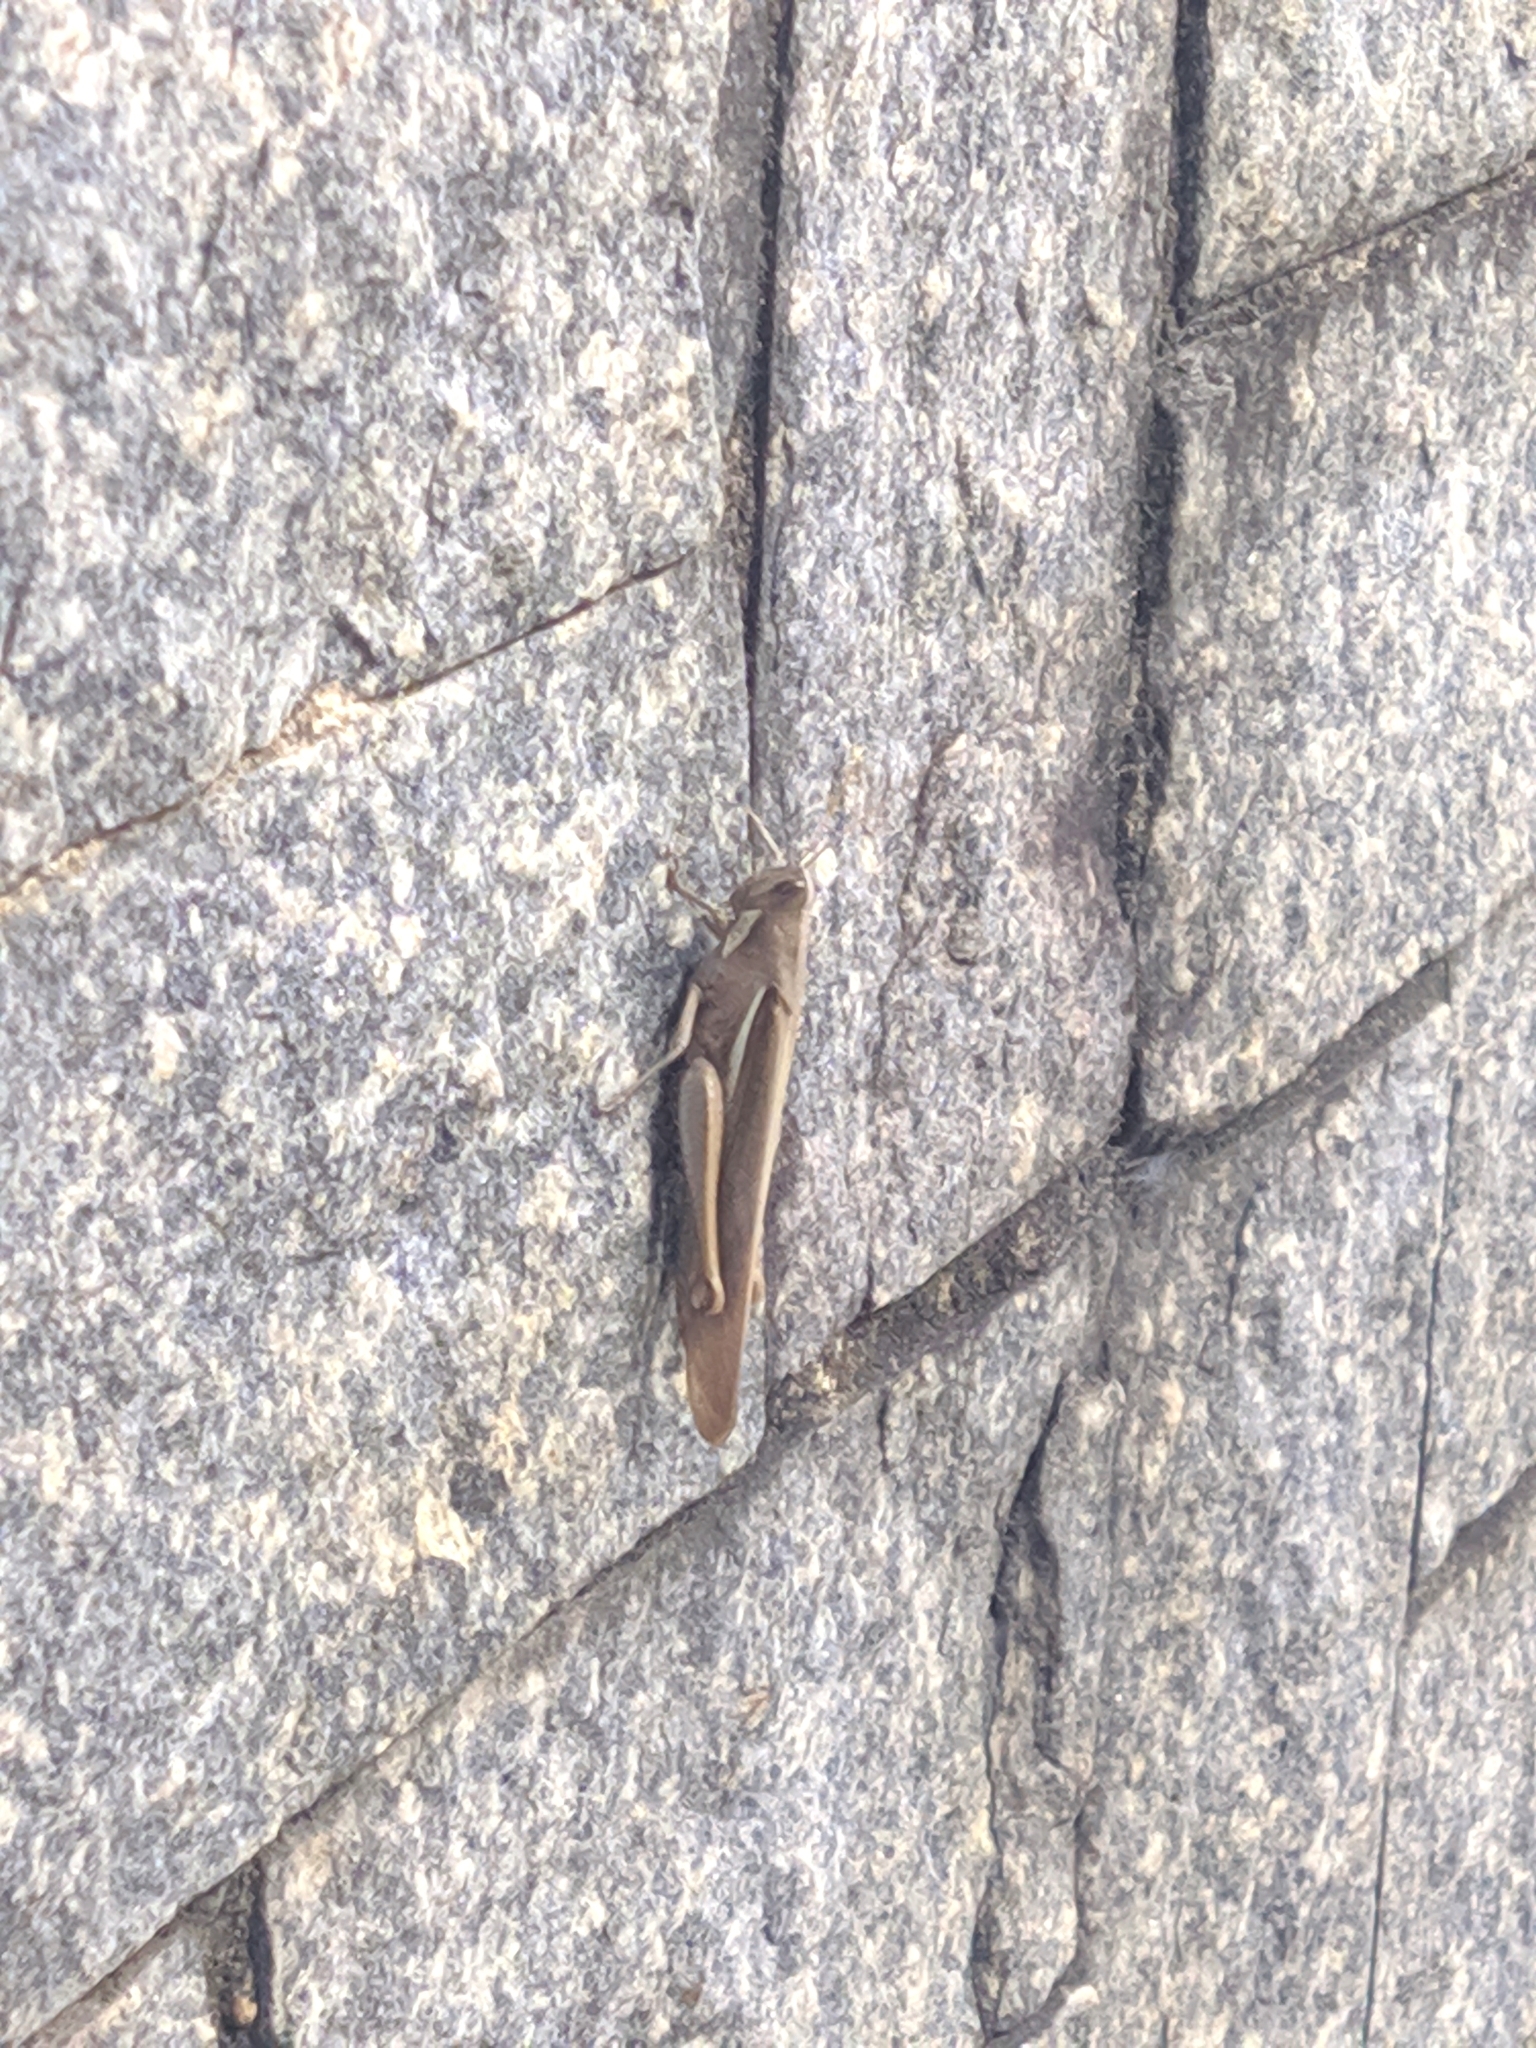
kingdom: Animalia
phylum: Arthropoda
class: Insecta
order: Orthoptera
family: Acrididae
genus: Schistocerca
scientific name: Schistocerca flavofasciata
